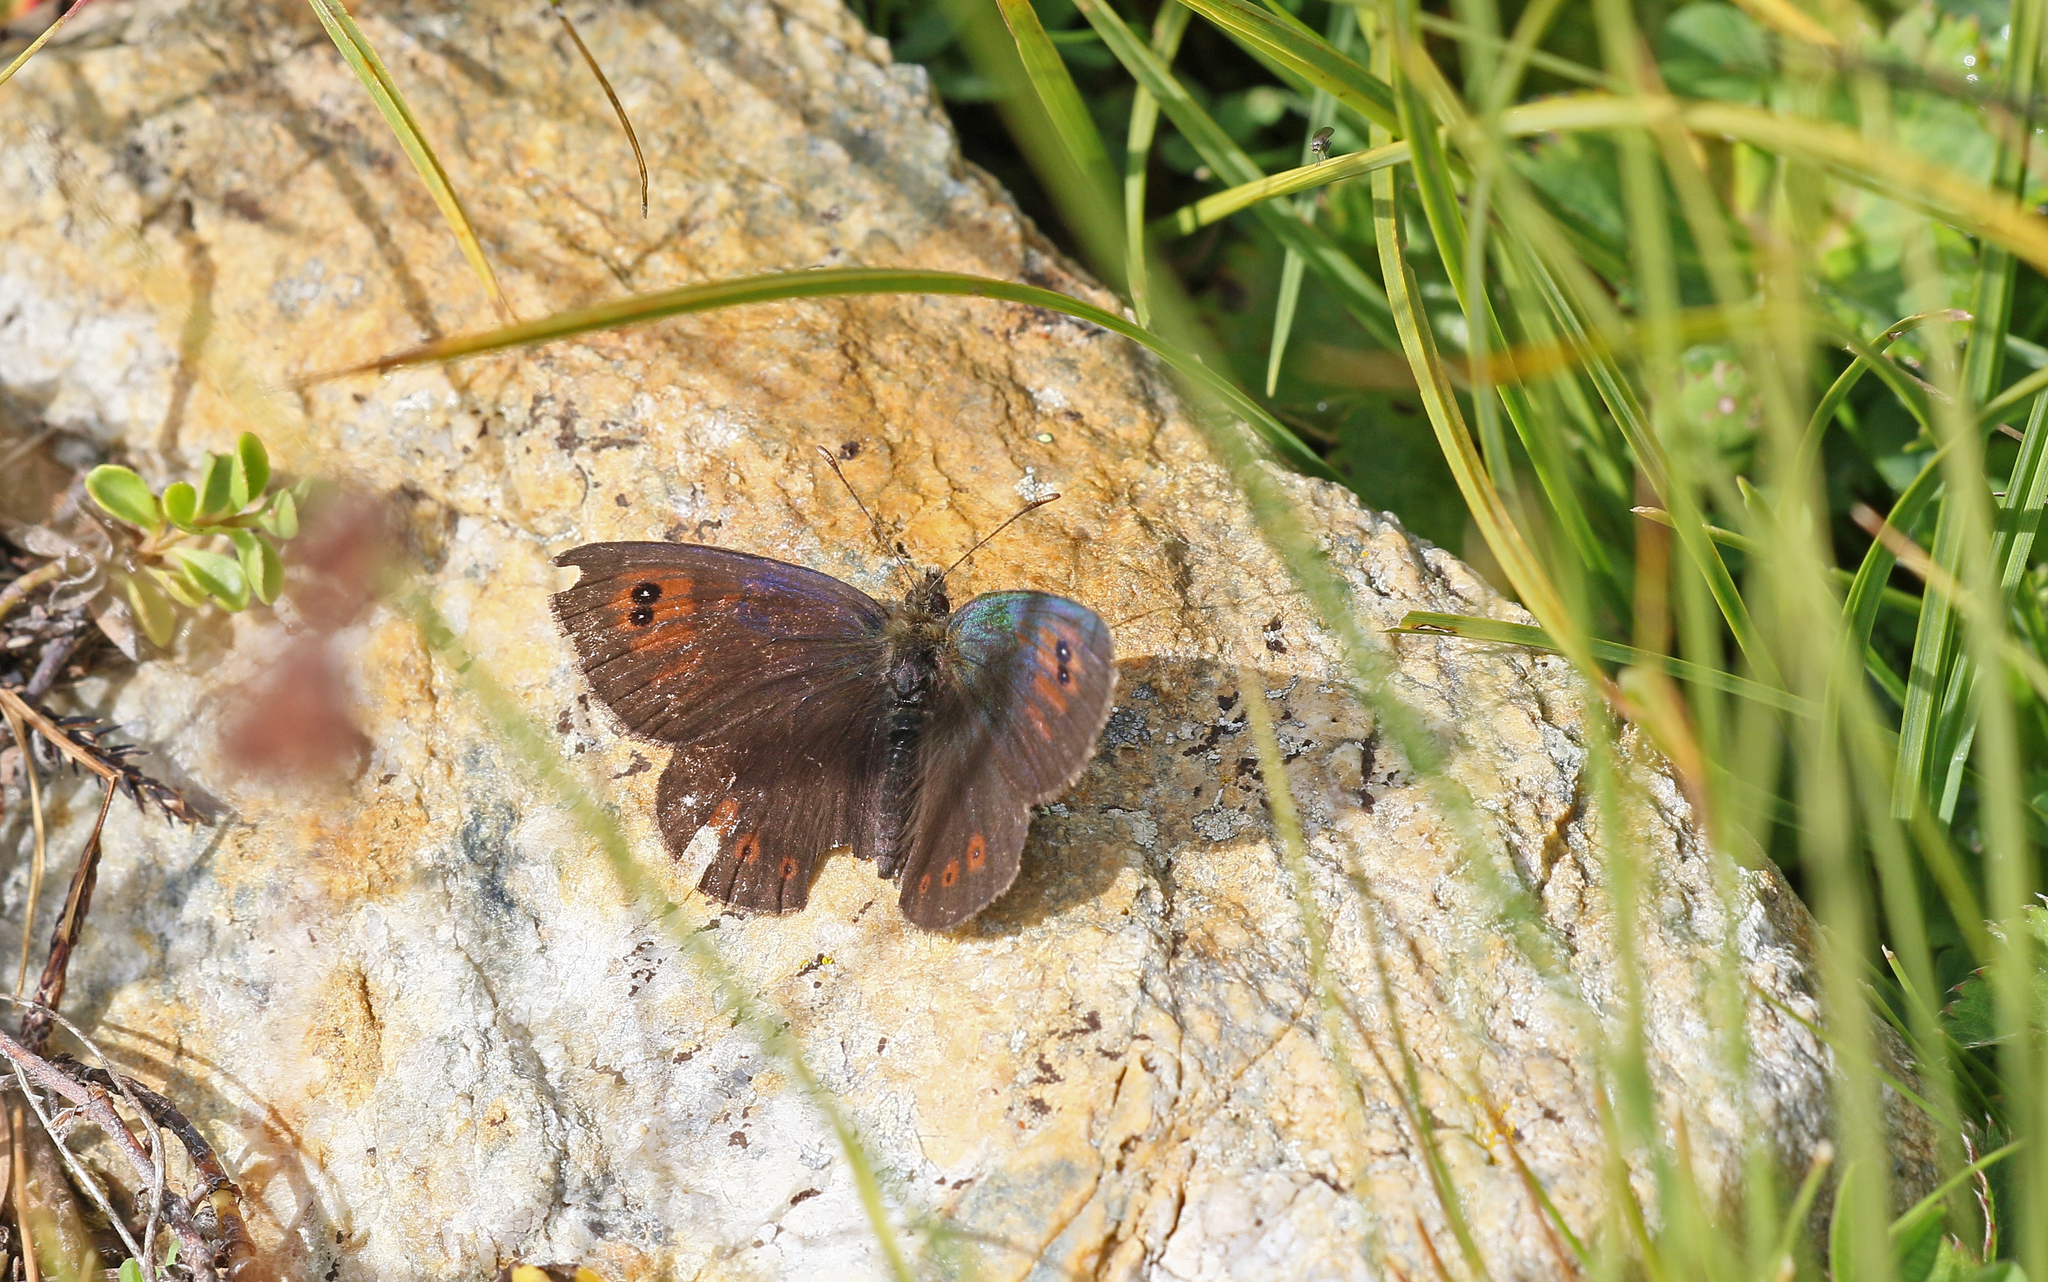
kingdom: Animalia
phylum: Arthropoda
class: Insecta
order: Lepidoptera
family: Nymphalidae
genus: Erebia
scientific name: Erebia cassioides
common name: Common brassy ringlet
